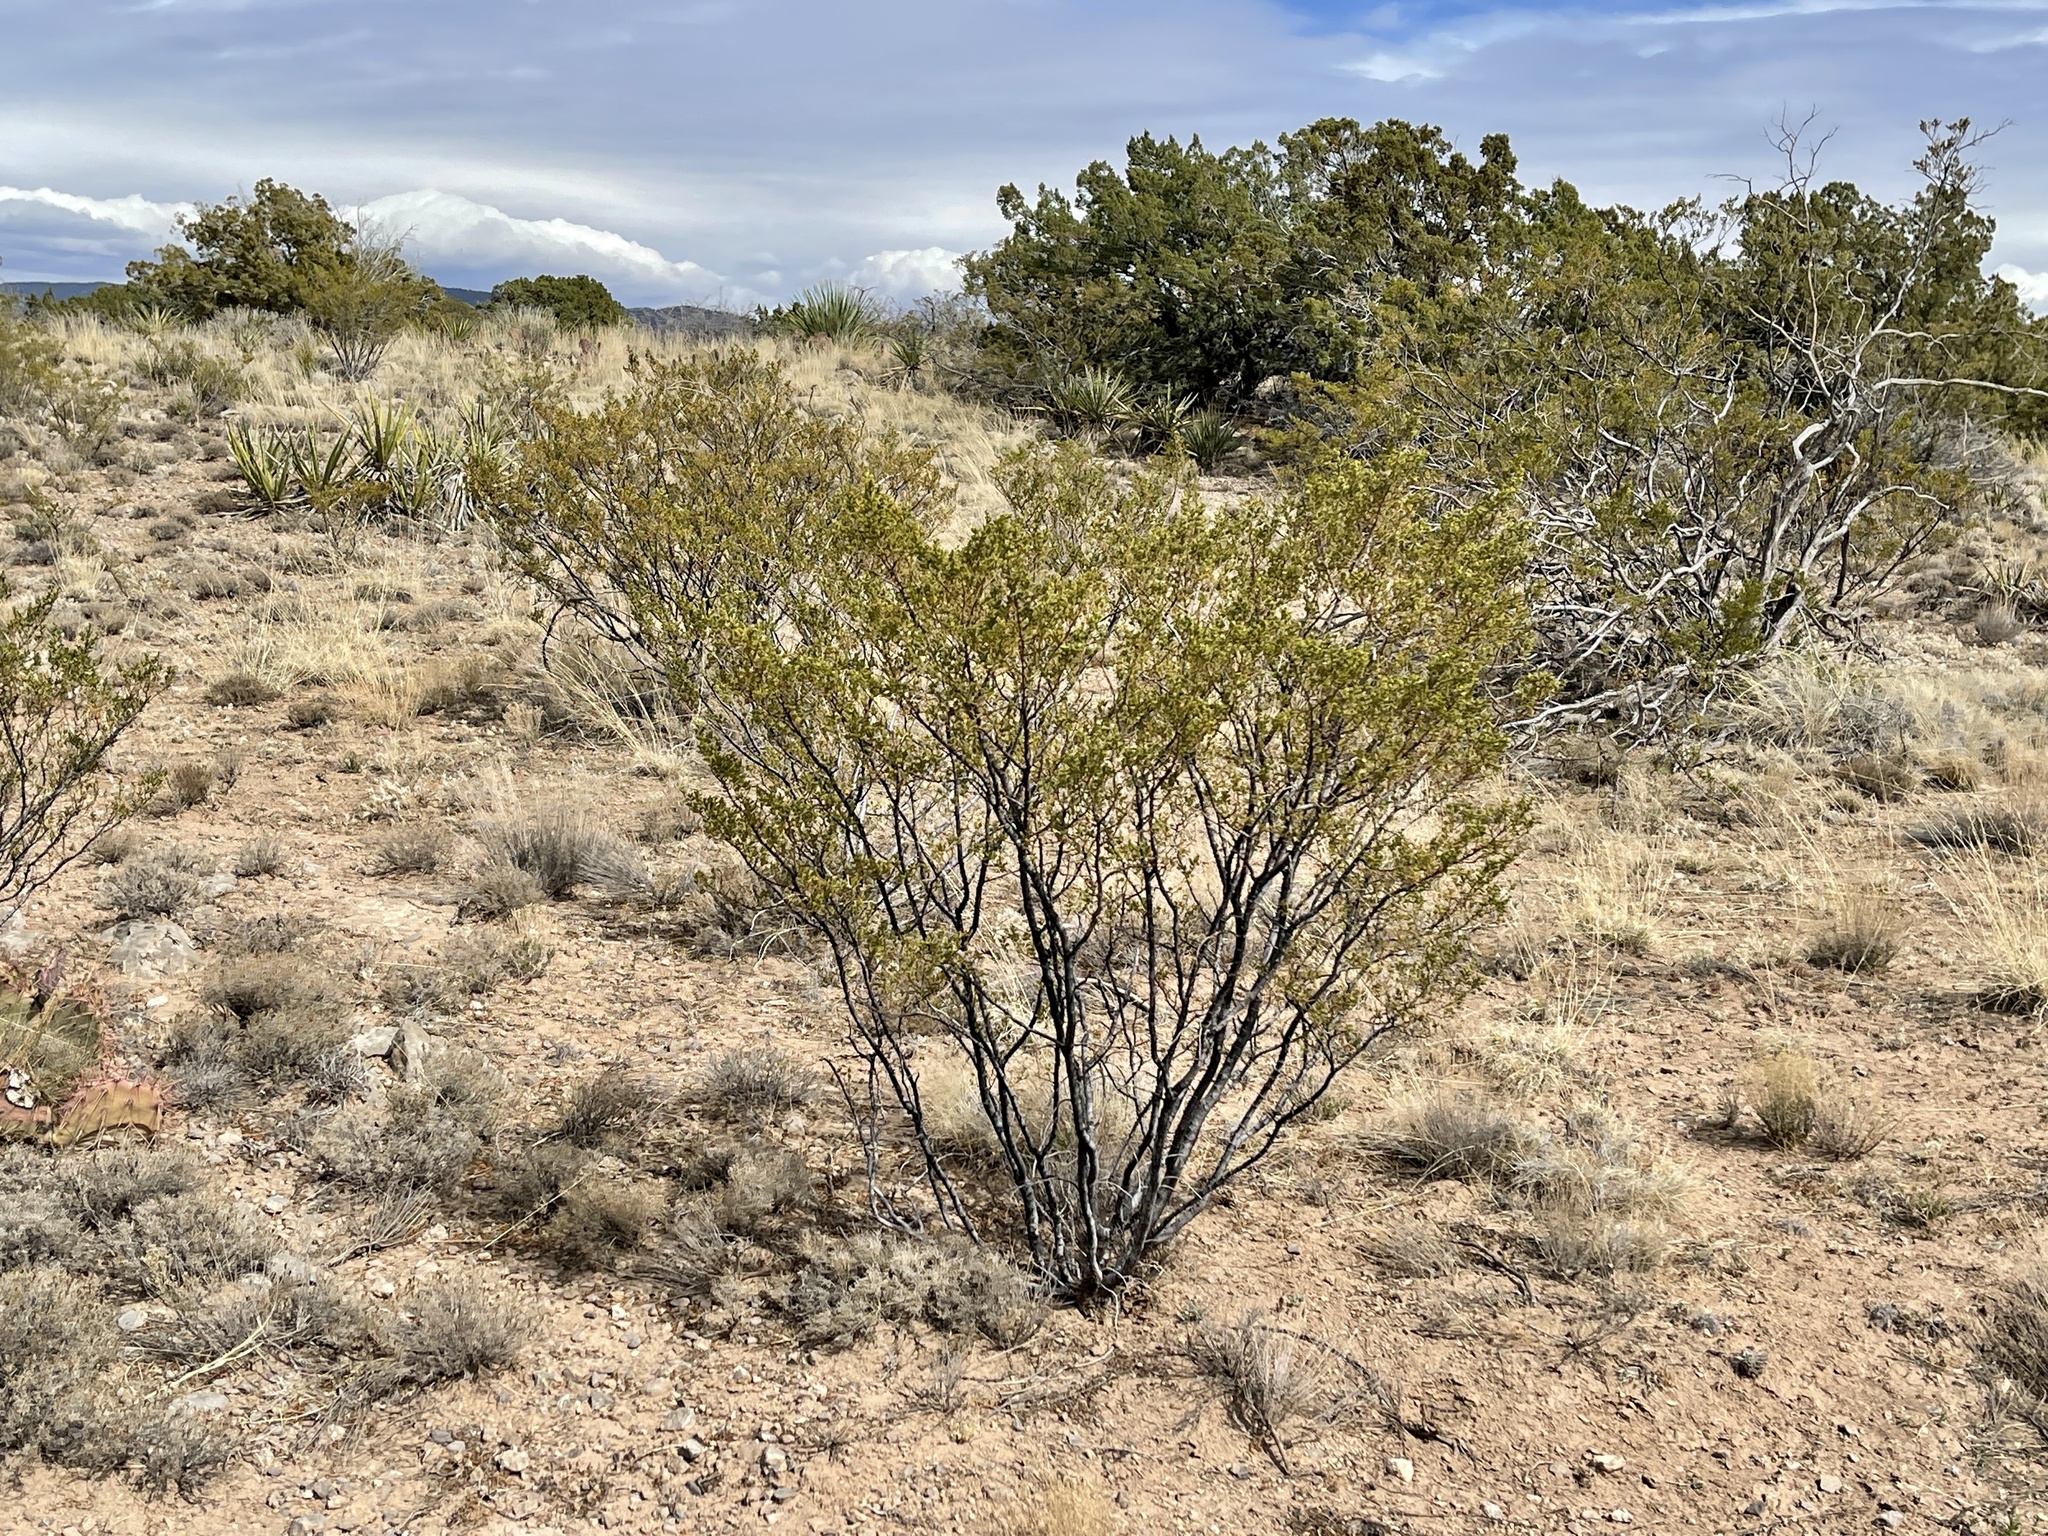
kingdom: Plantae
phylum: Tracheophyta
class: Magnoliopsida
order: Zygophyllales
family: Zygophyllaceae
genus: Larrea
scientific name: Larrea tridentata
